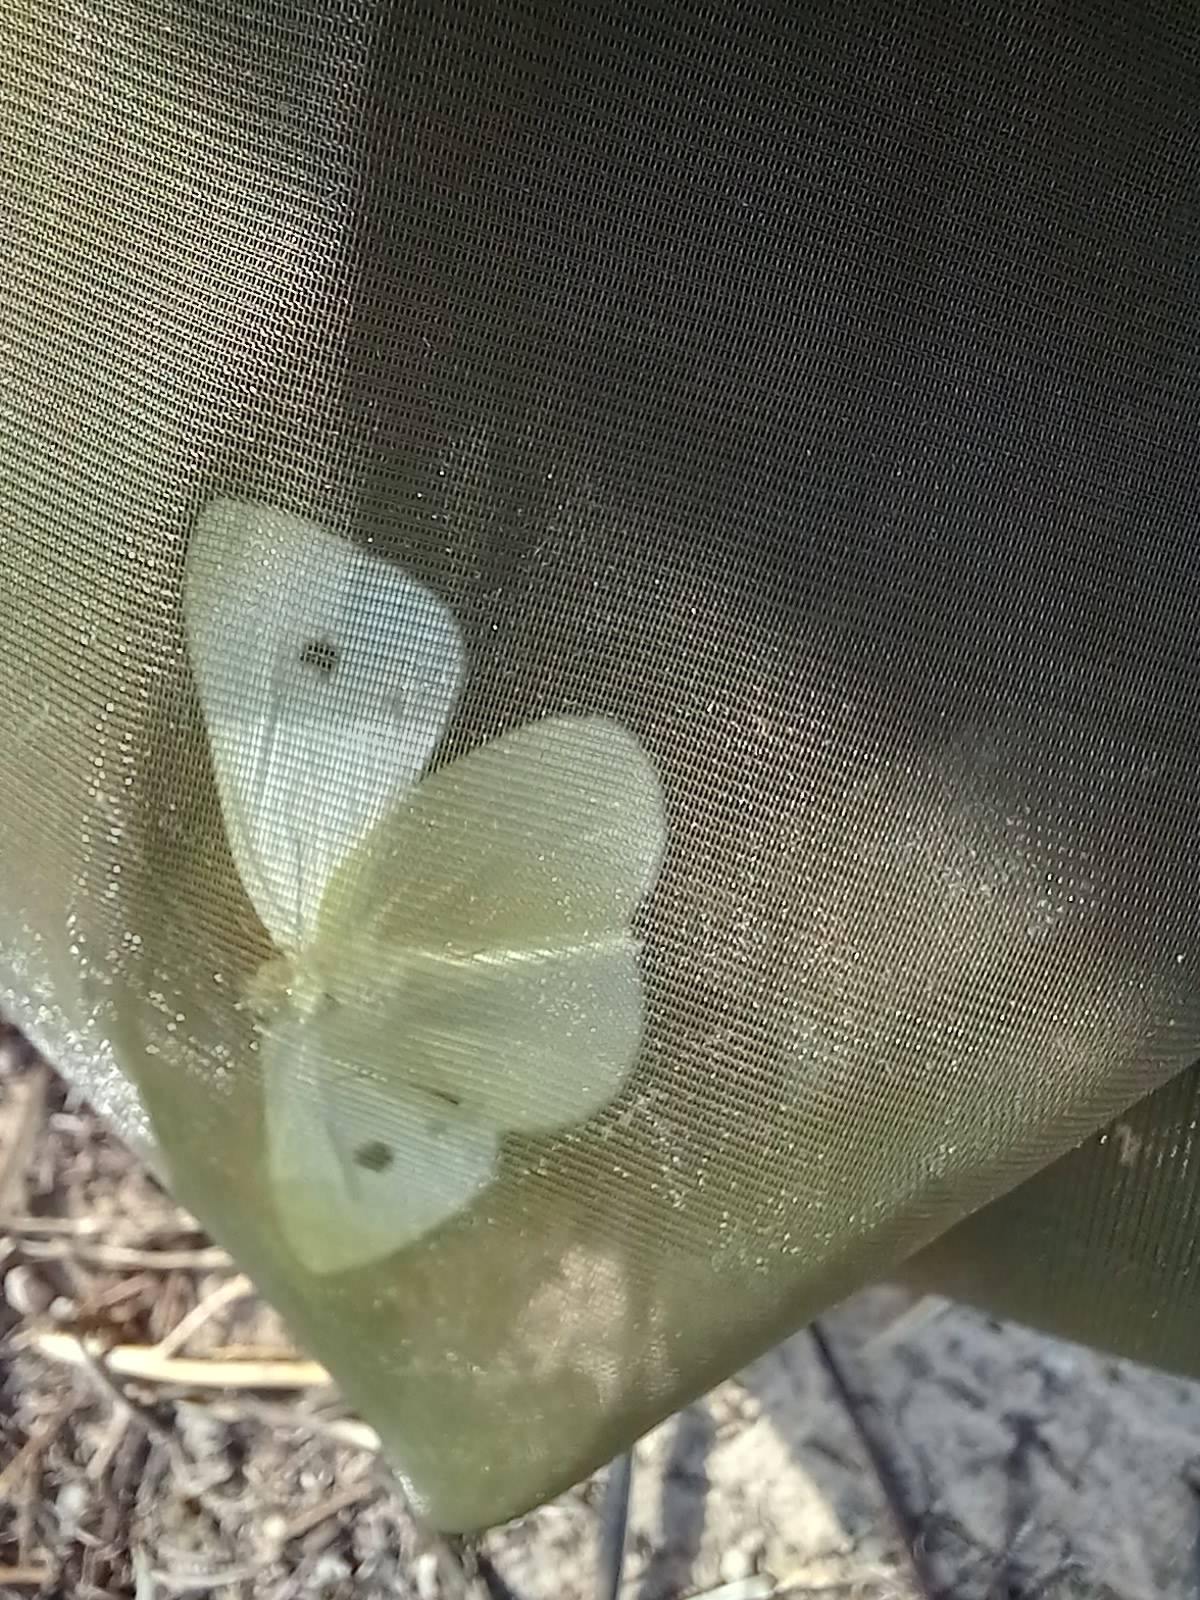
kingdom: Animalia
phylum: Arthropoda
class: Insecta
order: Lepidoptera
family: Pieridae
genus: Pieris
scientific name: Pieris rapae
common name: Small white
